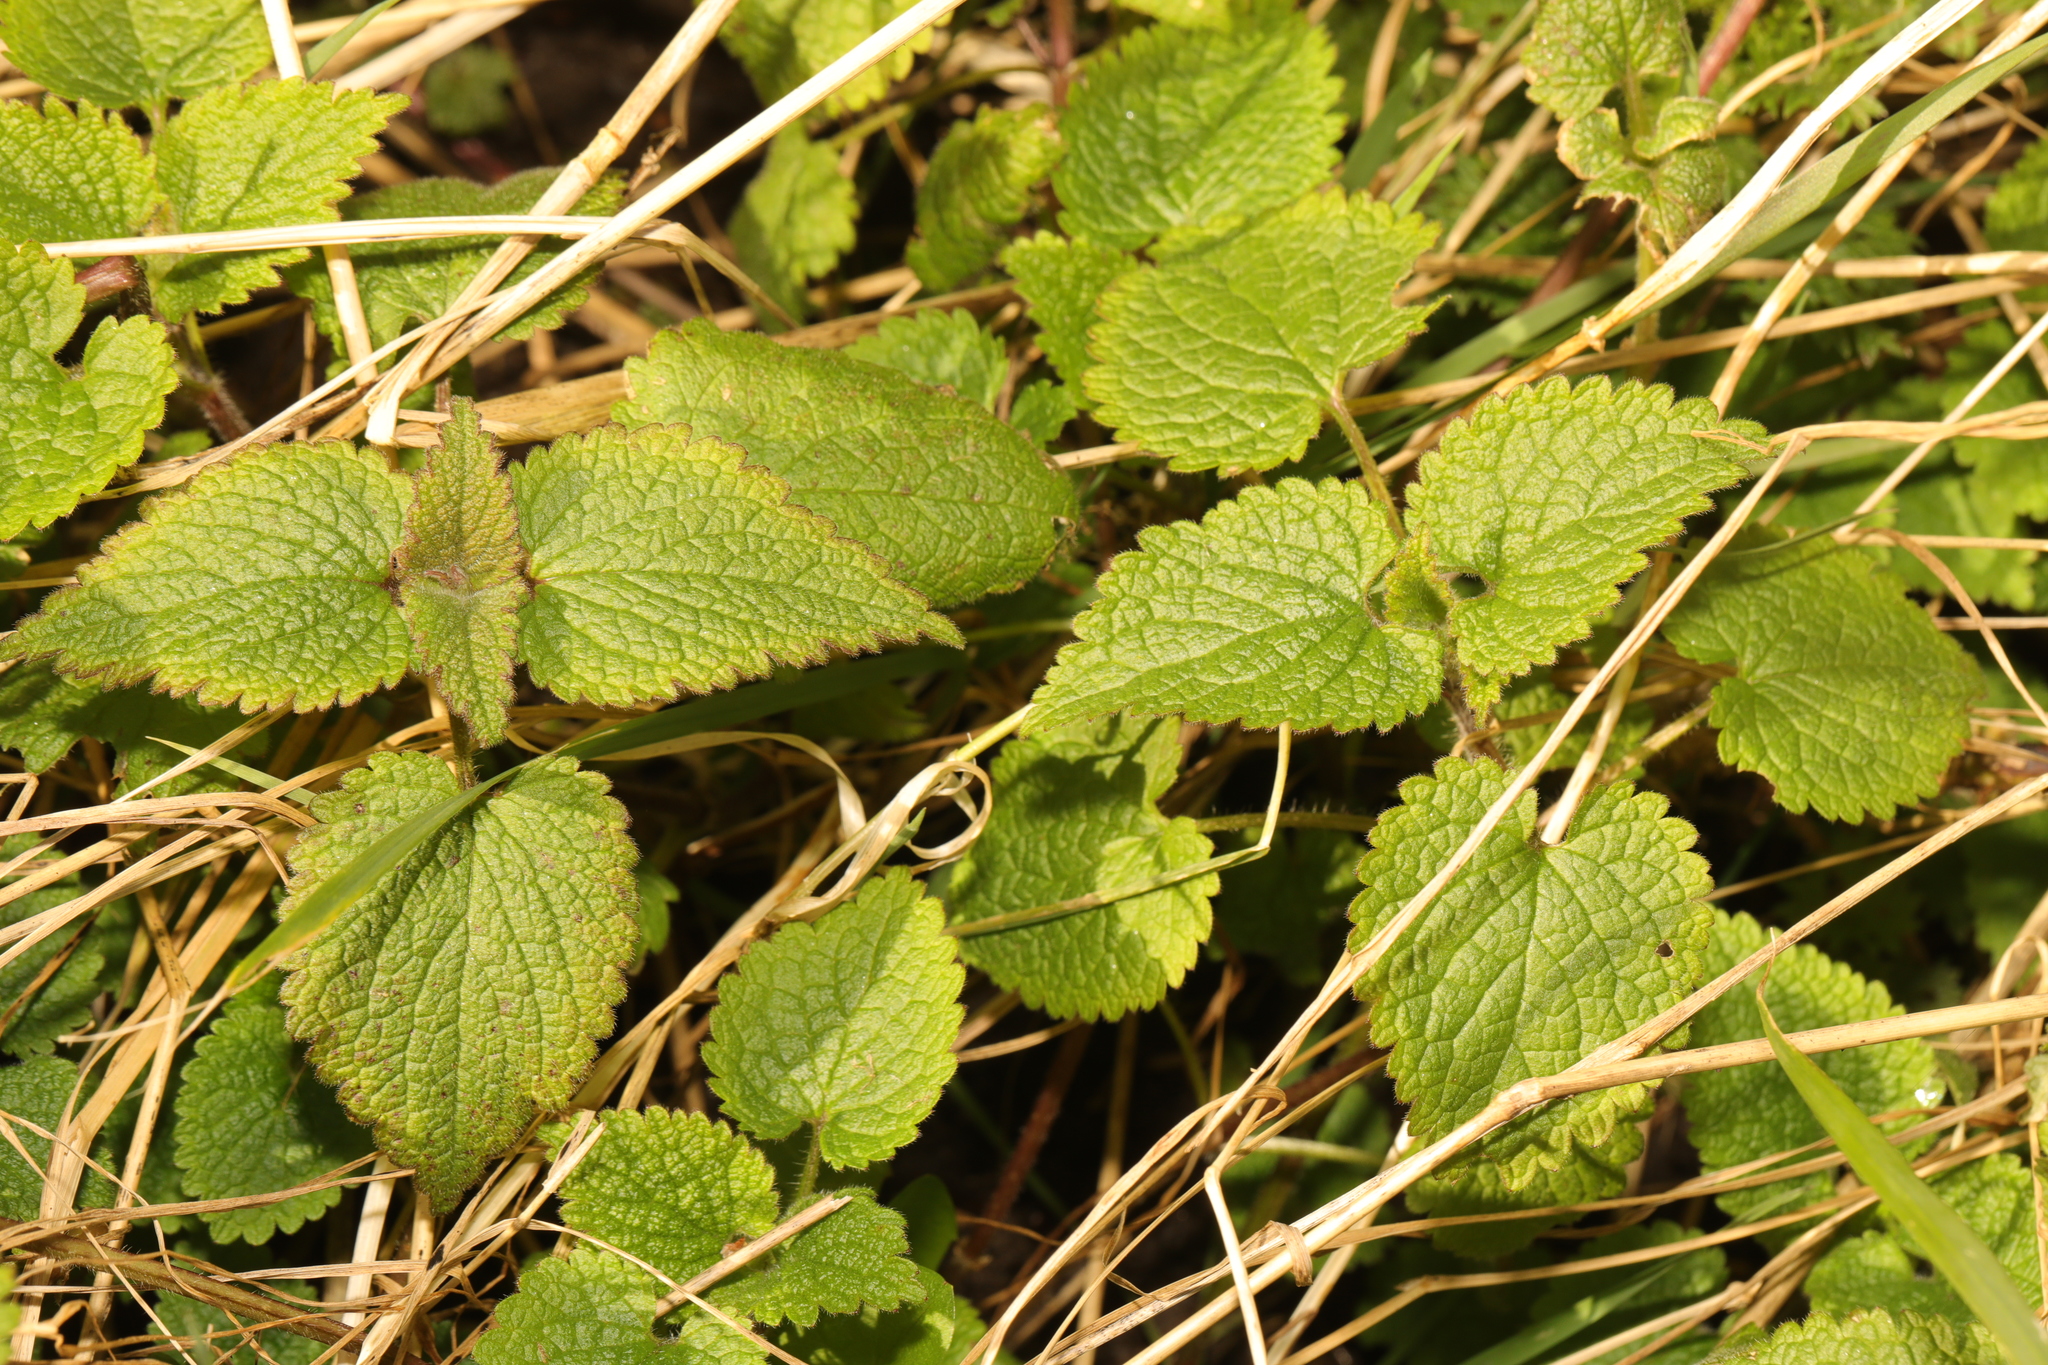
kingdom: Plantae
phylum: Tracheophyta
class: Magnoliopsida
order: Lamiales
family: Lamiaceae
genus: Lamium
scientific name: Lamium album
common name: White dead-nettle
